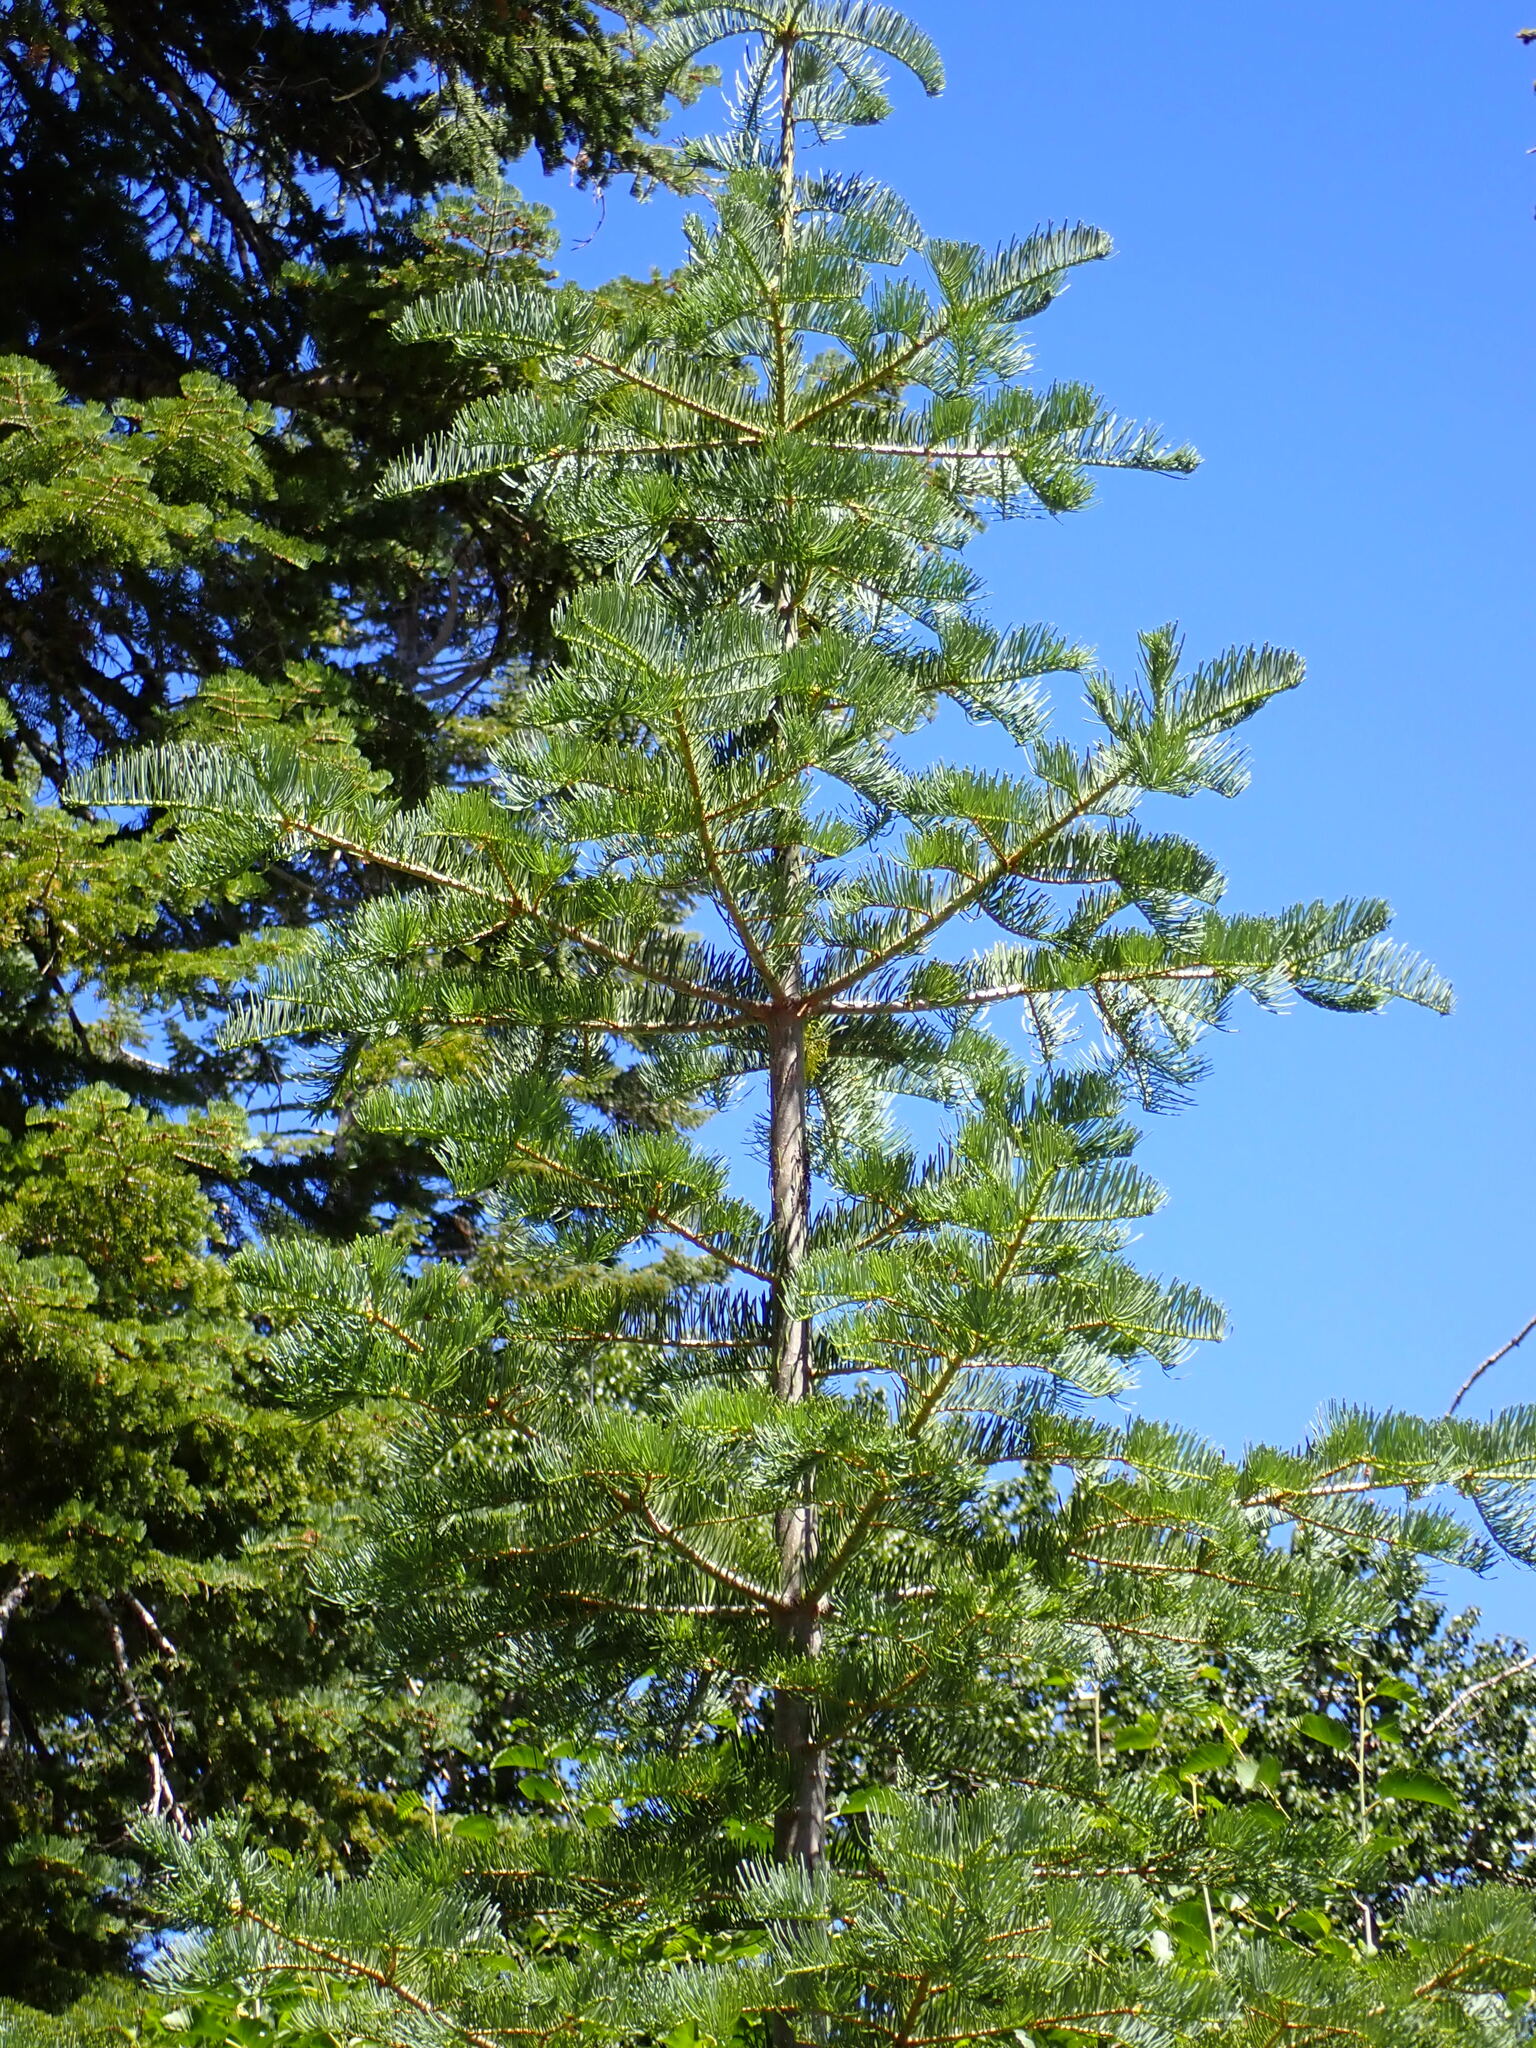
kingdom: Plantae
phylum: Tracheophyta
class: Pinopsida
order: Pinales
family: Pinaceae
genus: Abies
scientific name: Abies concolor
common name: Colorado fir
